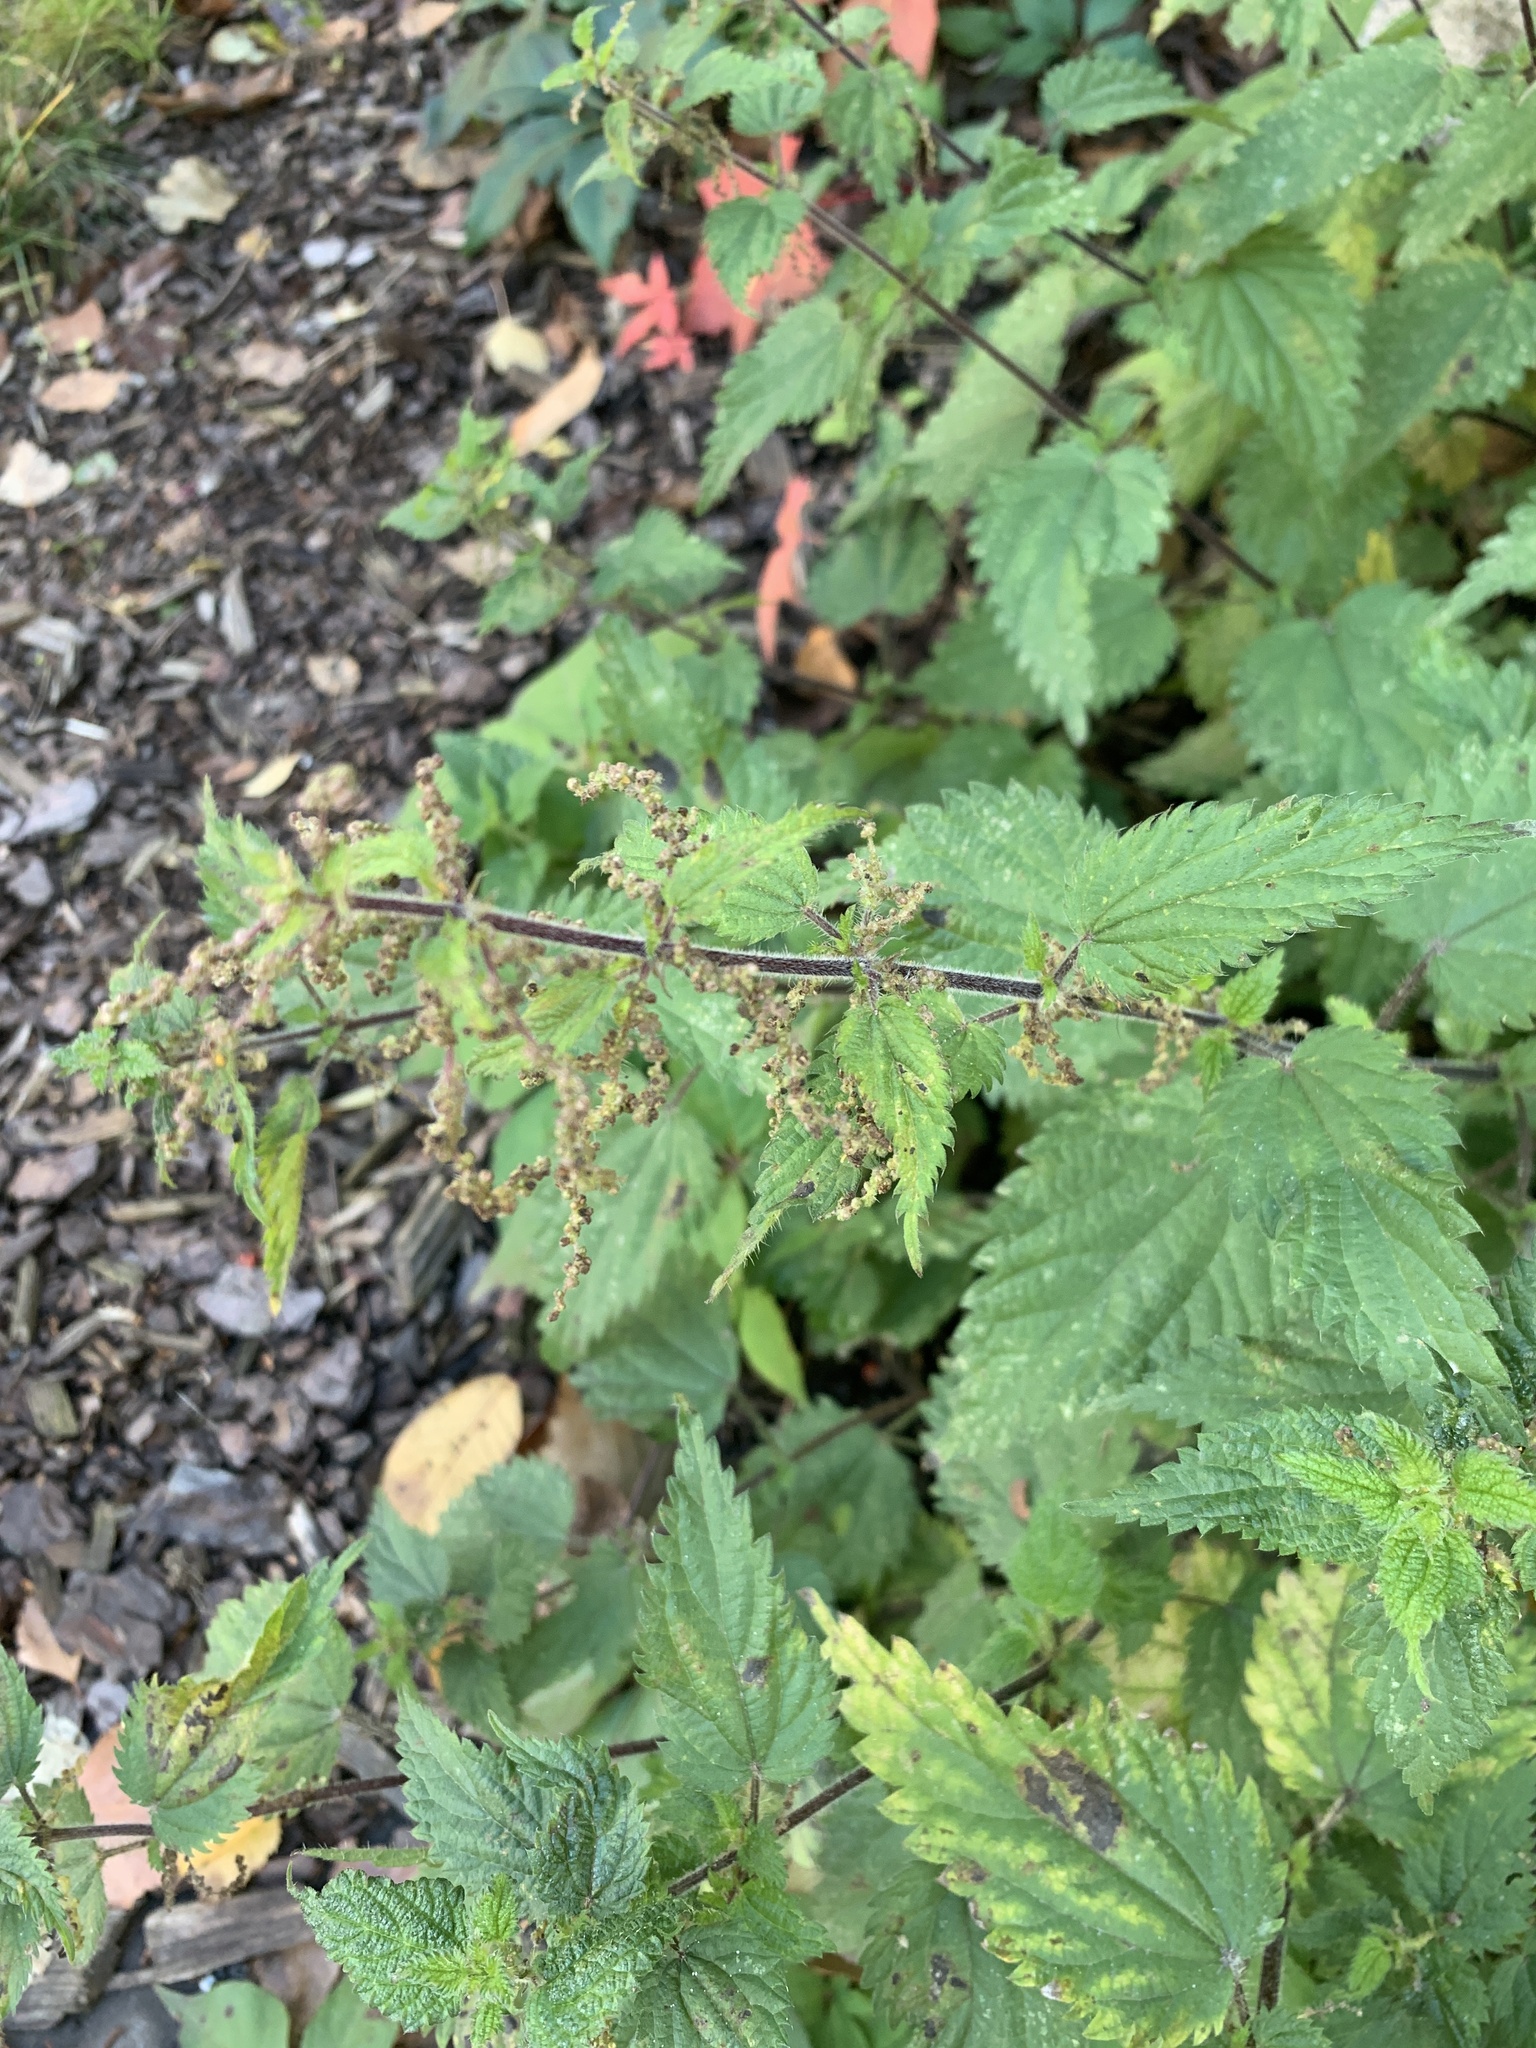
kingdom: Plantae
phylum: Tracheophyta
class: Magnoliopsida
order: Rosales
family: Urticaceae
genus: Urtica
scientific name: Urtica dioica
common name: Common nettle
